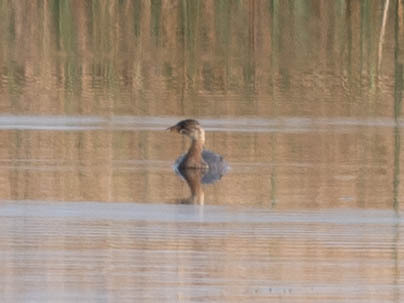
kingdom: Animalia
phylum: Chordata
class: Aves
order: Podicipediformes
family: Podicipedidae
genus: Podilymbus
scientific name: Podilymbus podiceps
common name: Pied-billed grebe
